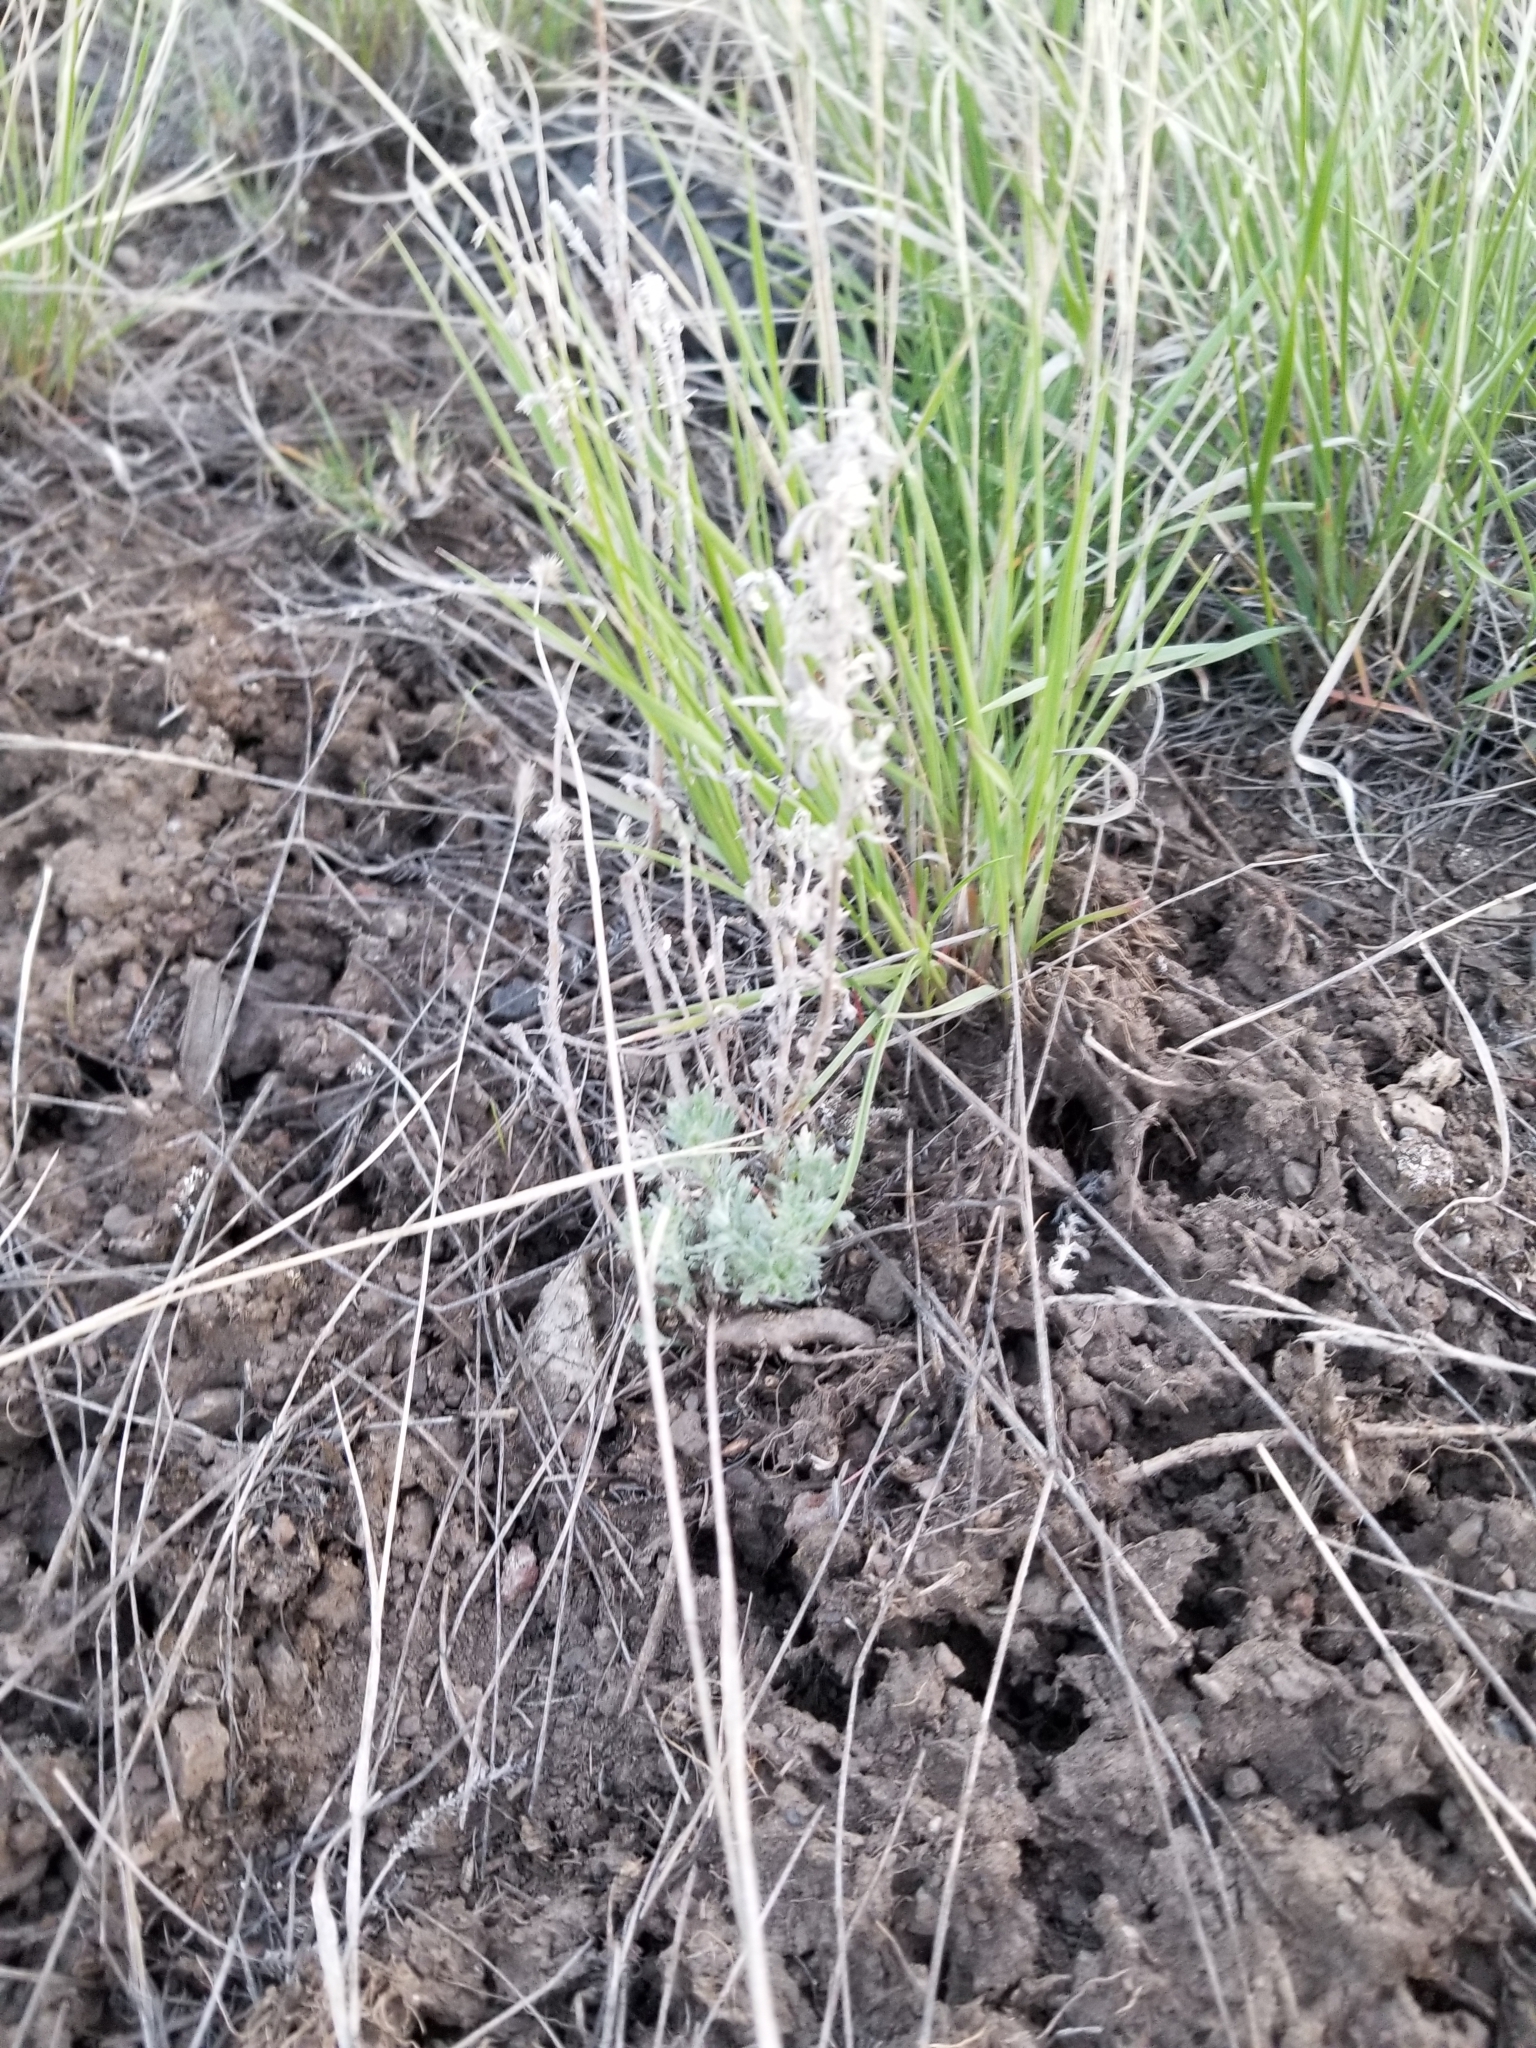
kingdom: Plantae
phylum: Tracheophyta
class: Magnoliopsida
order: Asterales
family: Asteraceae
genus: Artemisia
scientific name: Artemisia frigida
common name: Prairie sagewort
